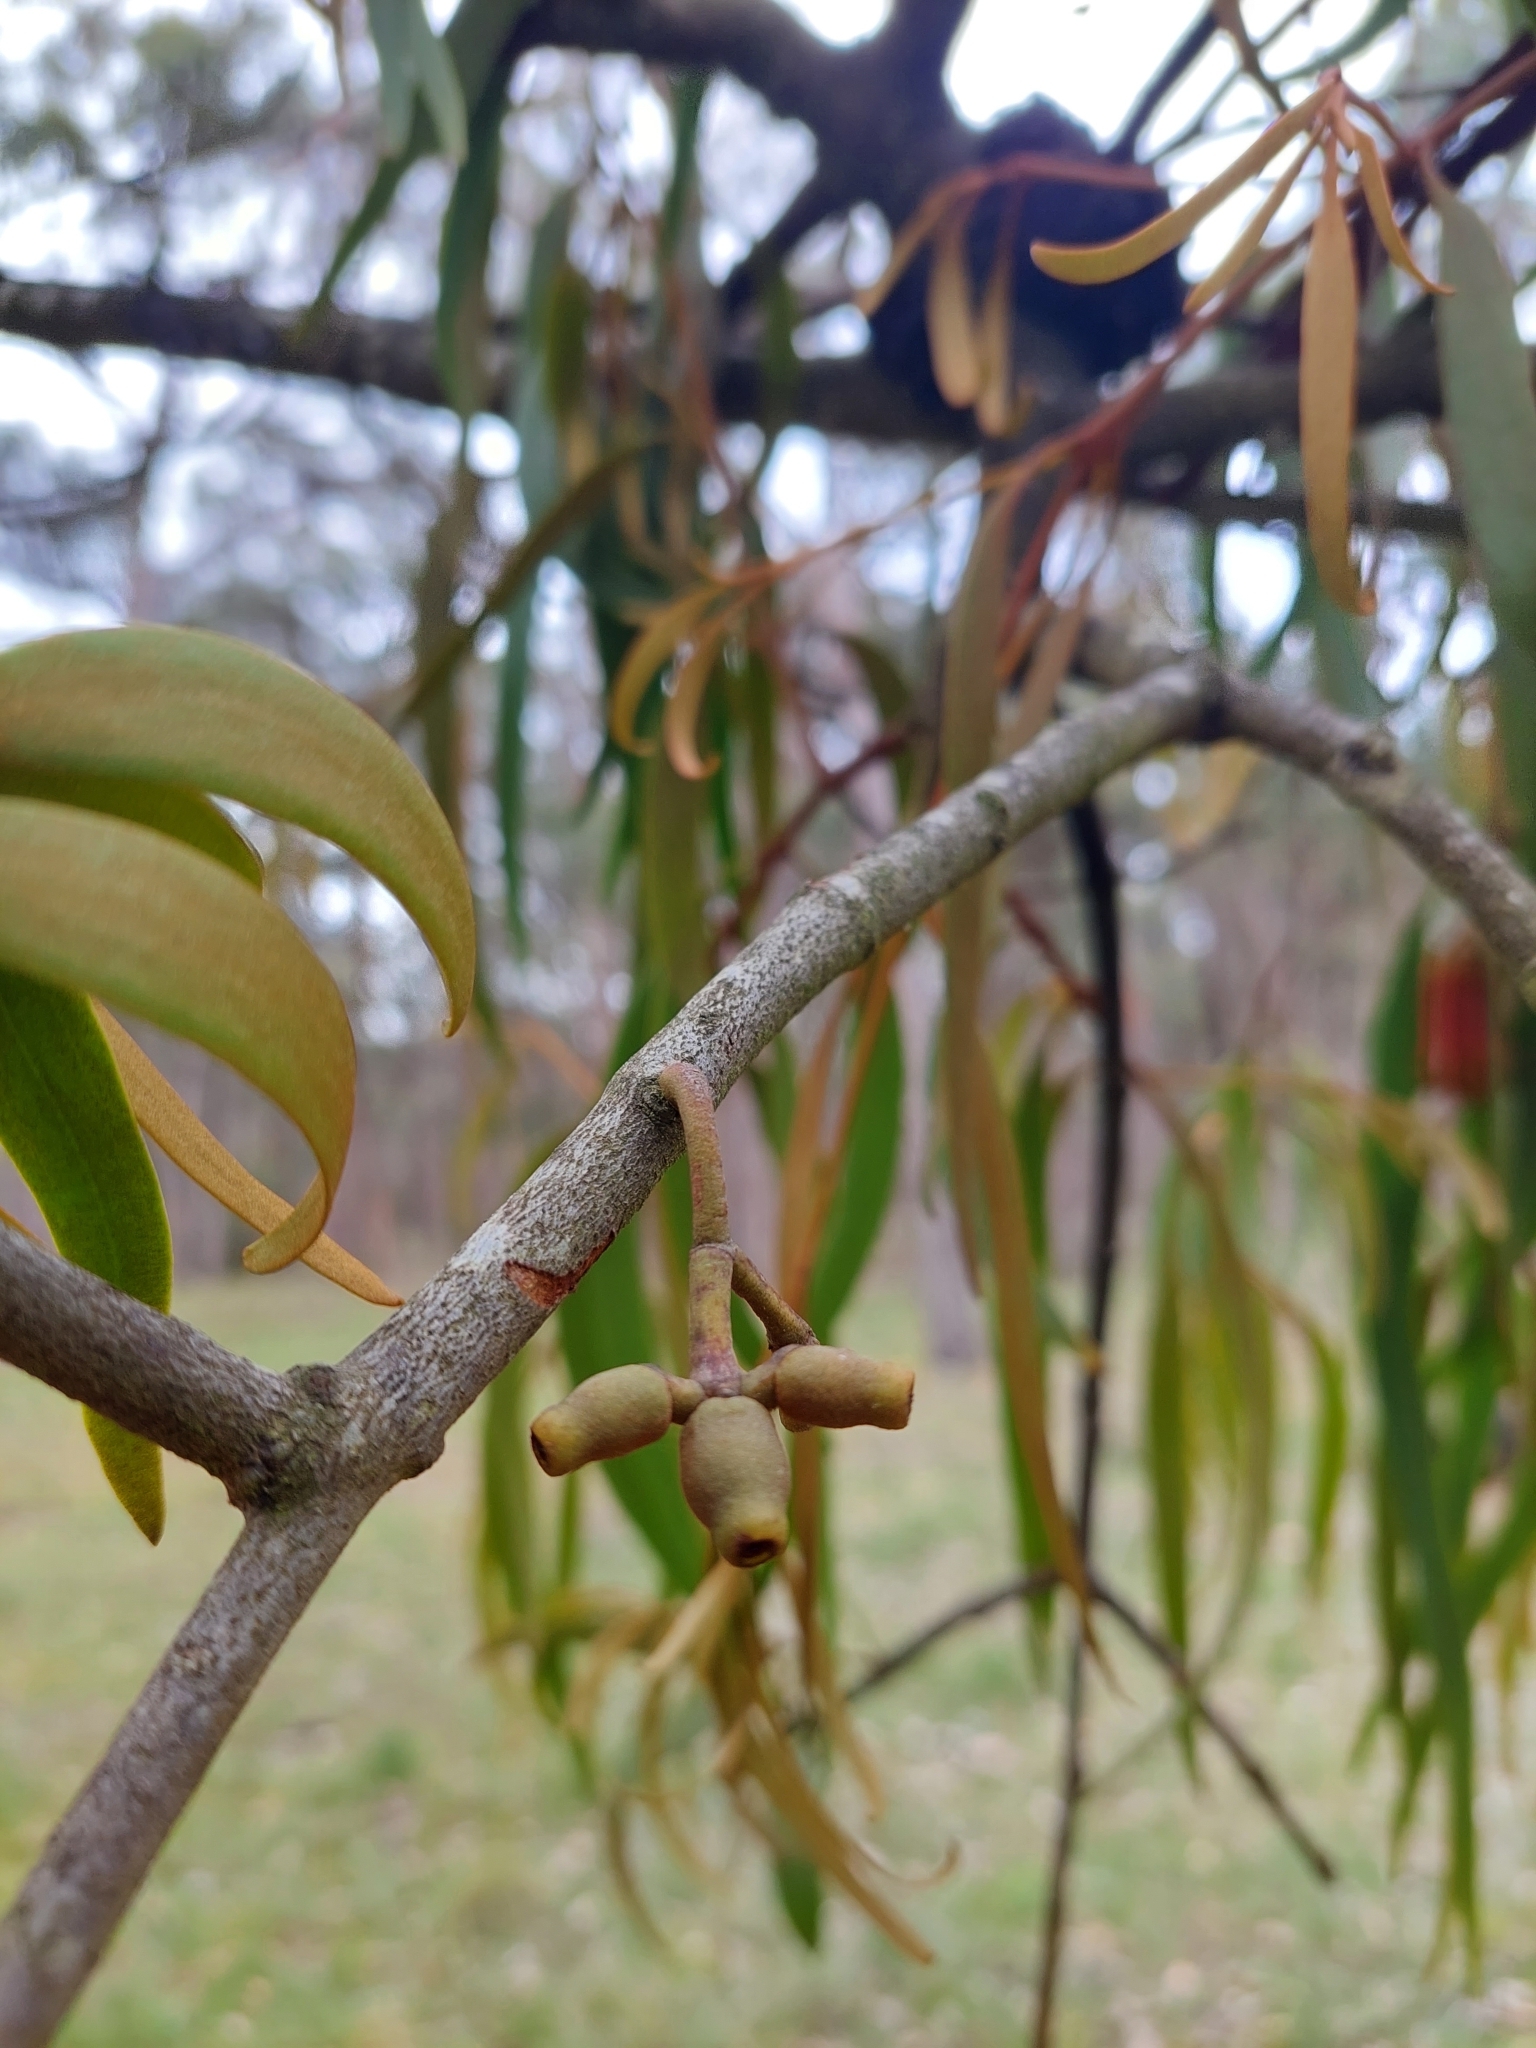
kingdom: Plantae
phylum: Tracheophyta
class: Magnoliopsida
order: Santalales
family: Loranthaceae
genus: Amyema
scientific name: Amyema pendula
